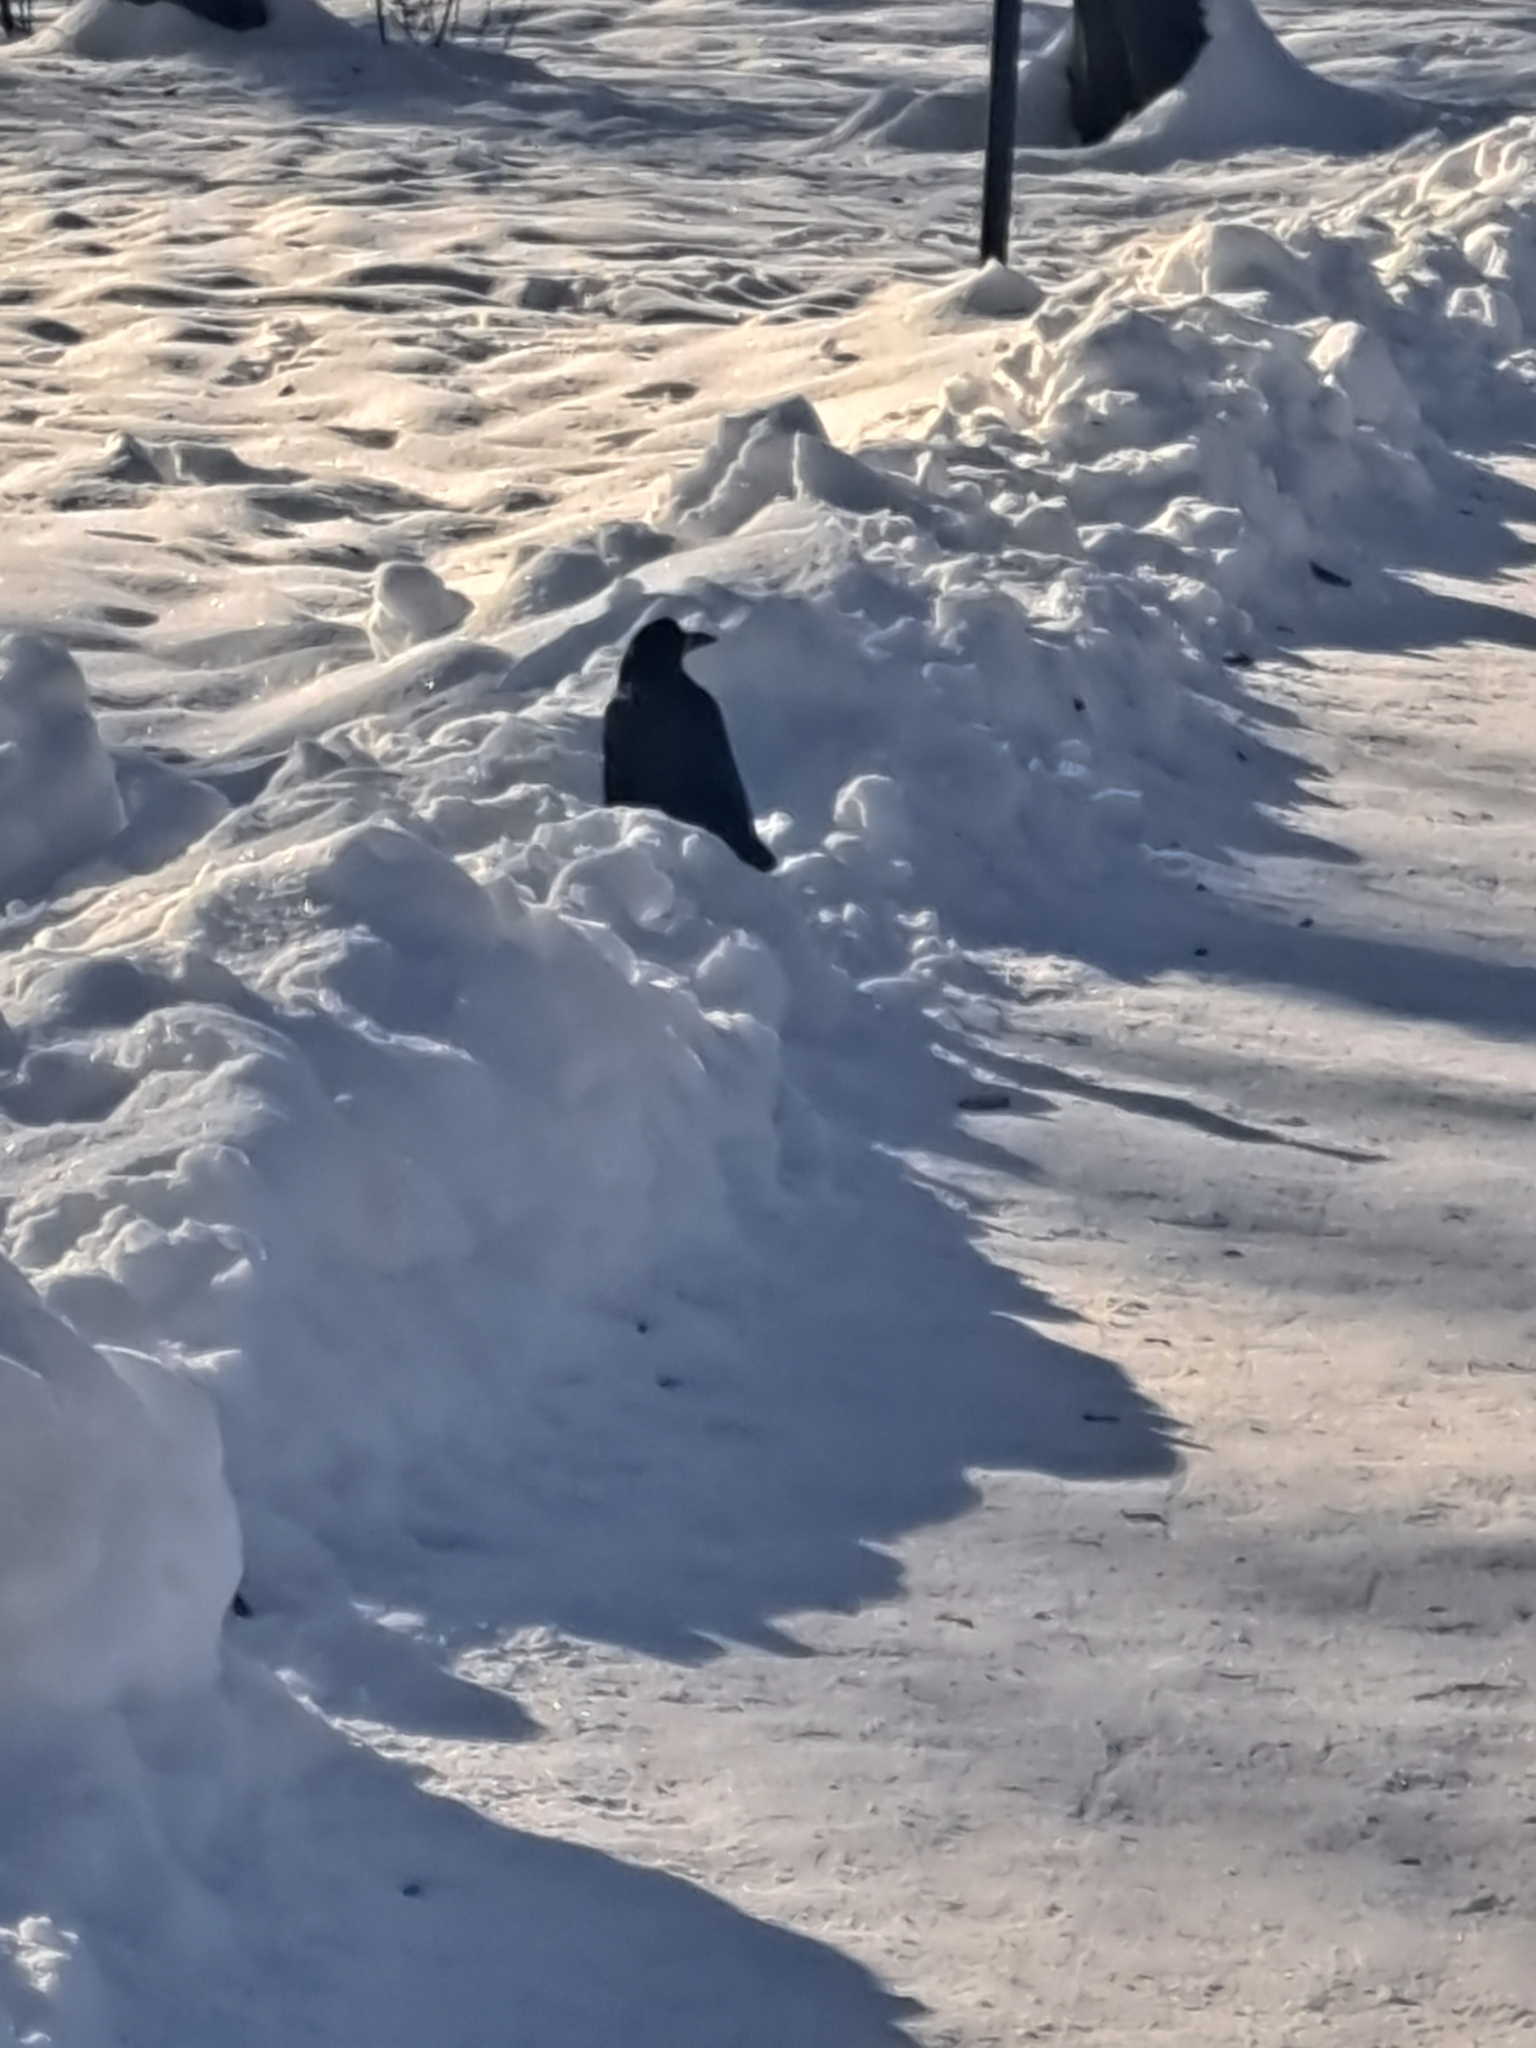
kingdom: Animalia
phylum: Chordata
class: Aves
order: Passeriformes
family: Corvidae
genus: Corvus
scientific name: Corvus frugilegus
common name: Rook
